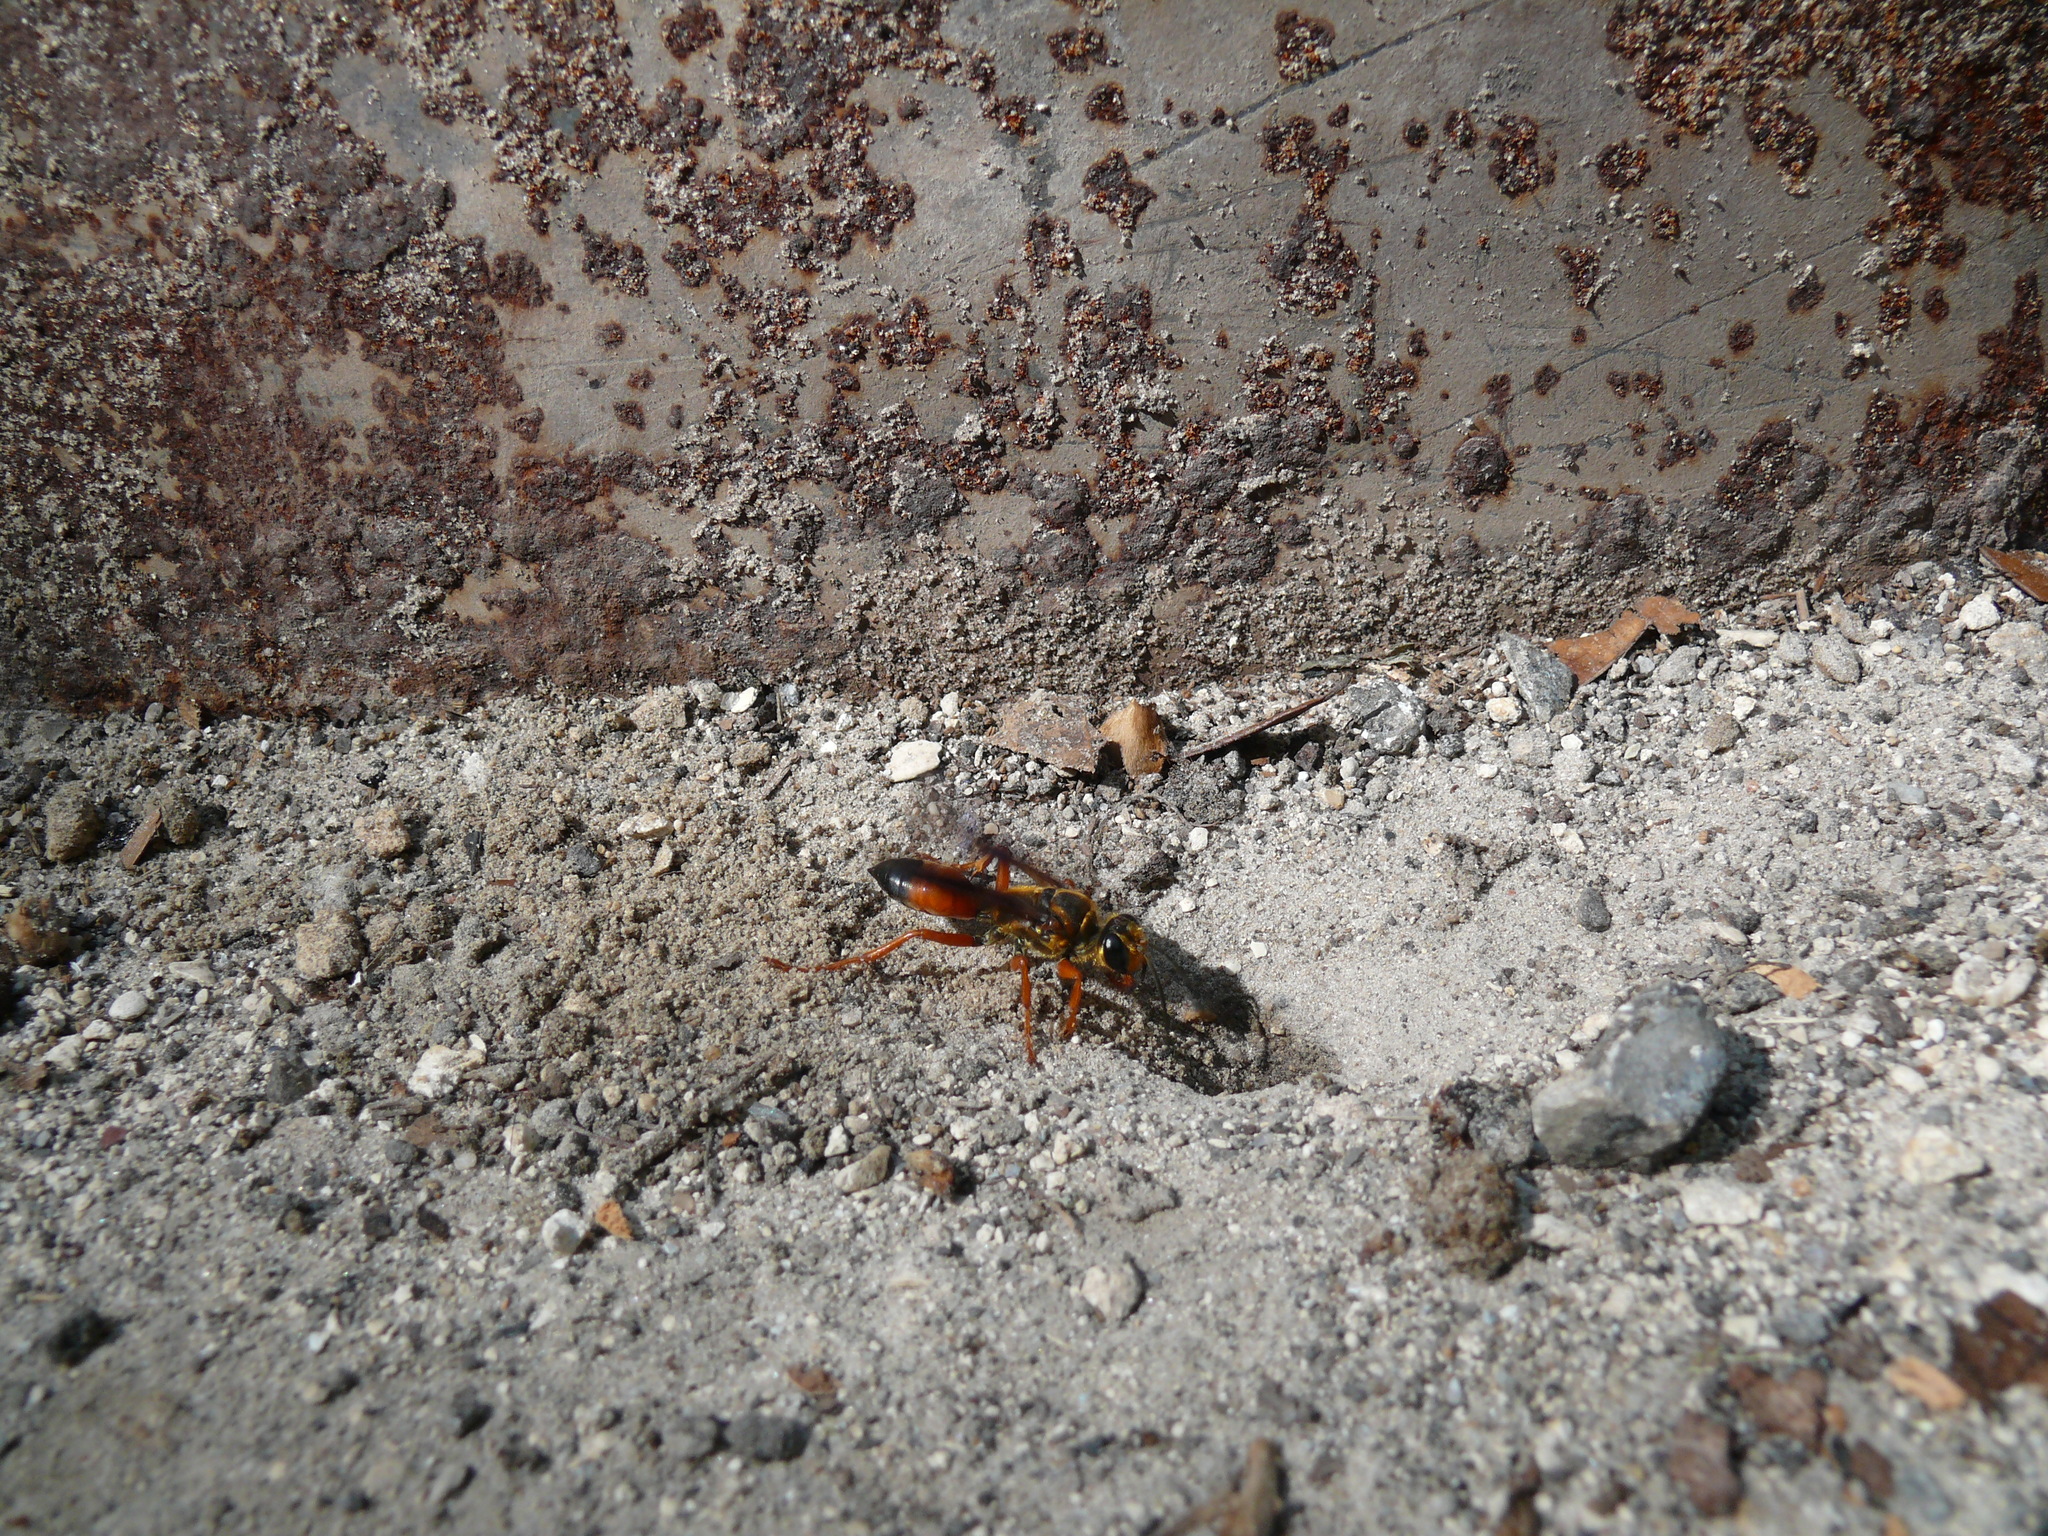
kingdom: Animalia
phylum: Arthropoda
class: Insecta
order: Hymenoptera
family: Sphecidae
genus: Sphex
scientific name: Sphex ichneumoneus
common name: Great golden digger wasp
